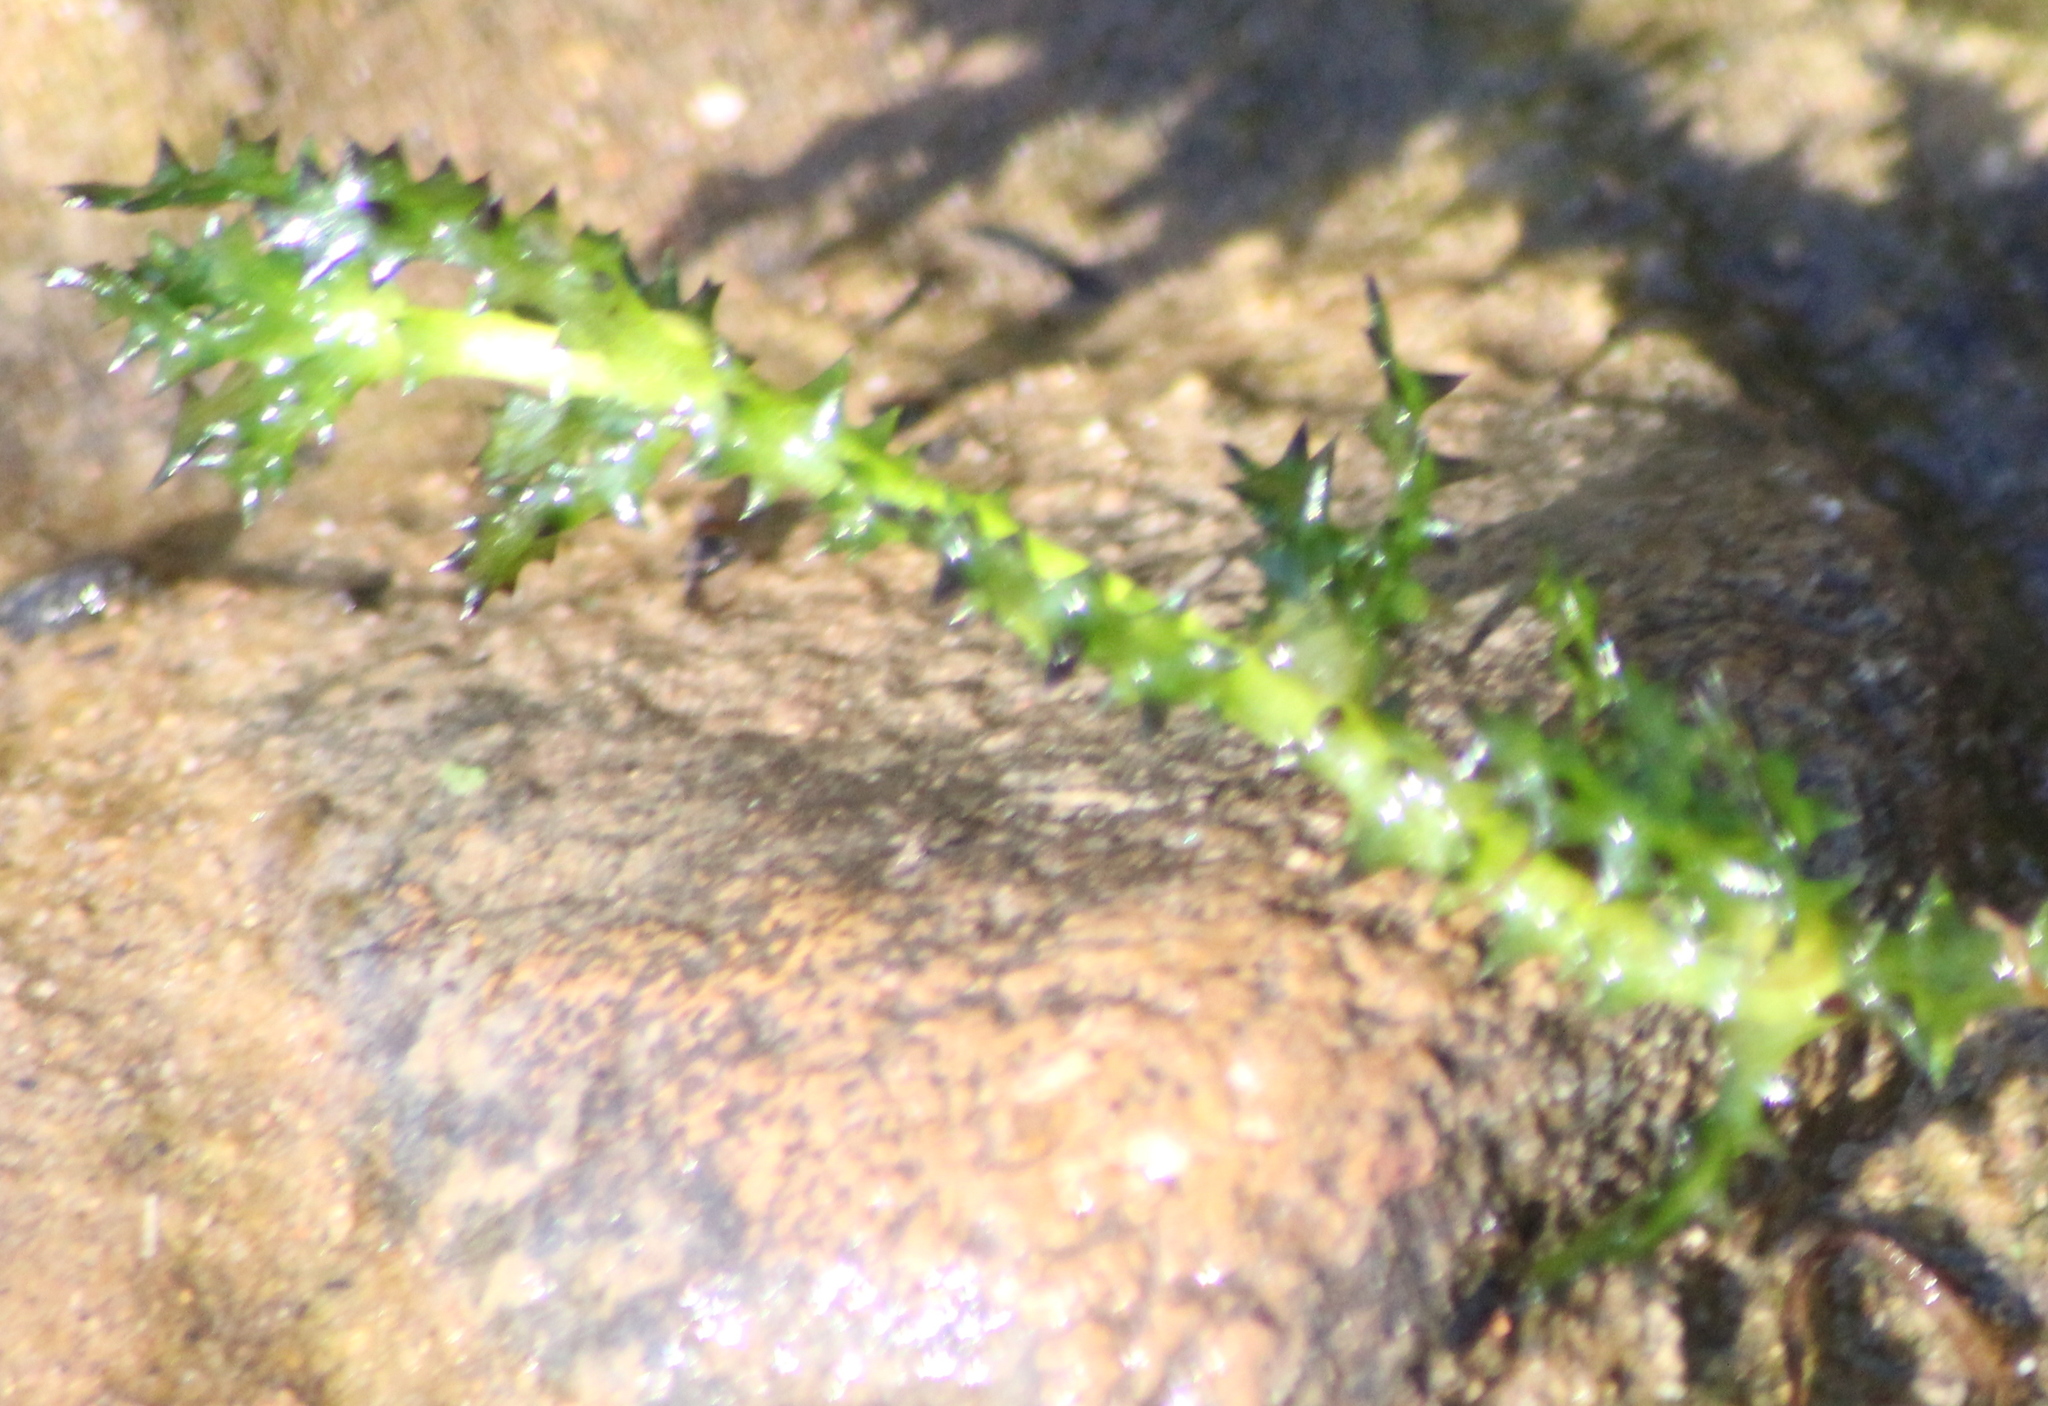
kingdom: Plantae
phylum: Tracheophyta
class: Liliopsida
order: Alismatales
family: Hydrocharitaceae
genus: Najas
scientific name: Najas marina
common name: Holly-leaved naiad
